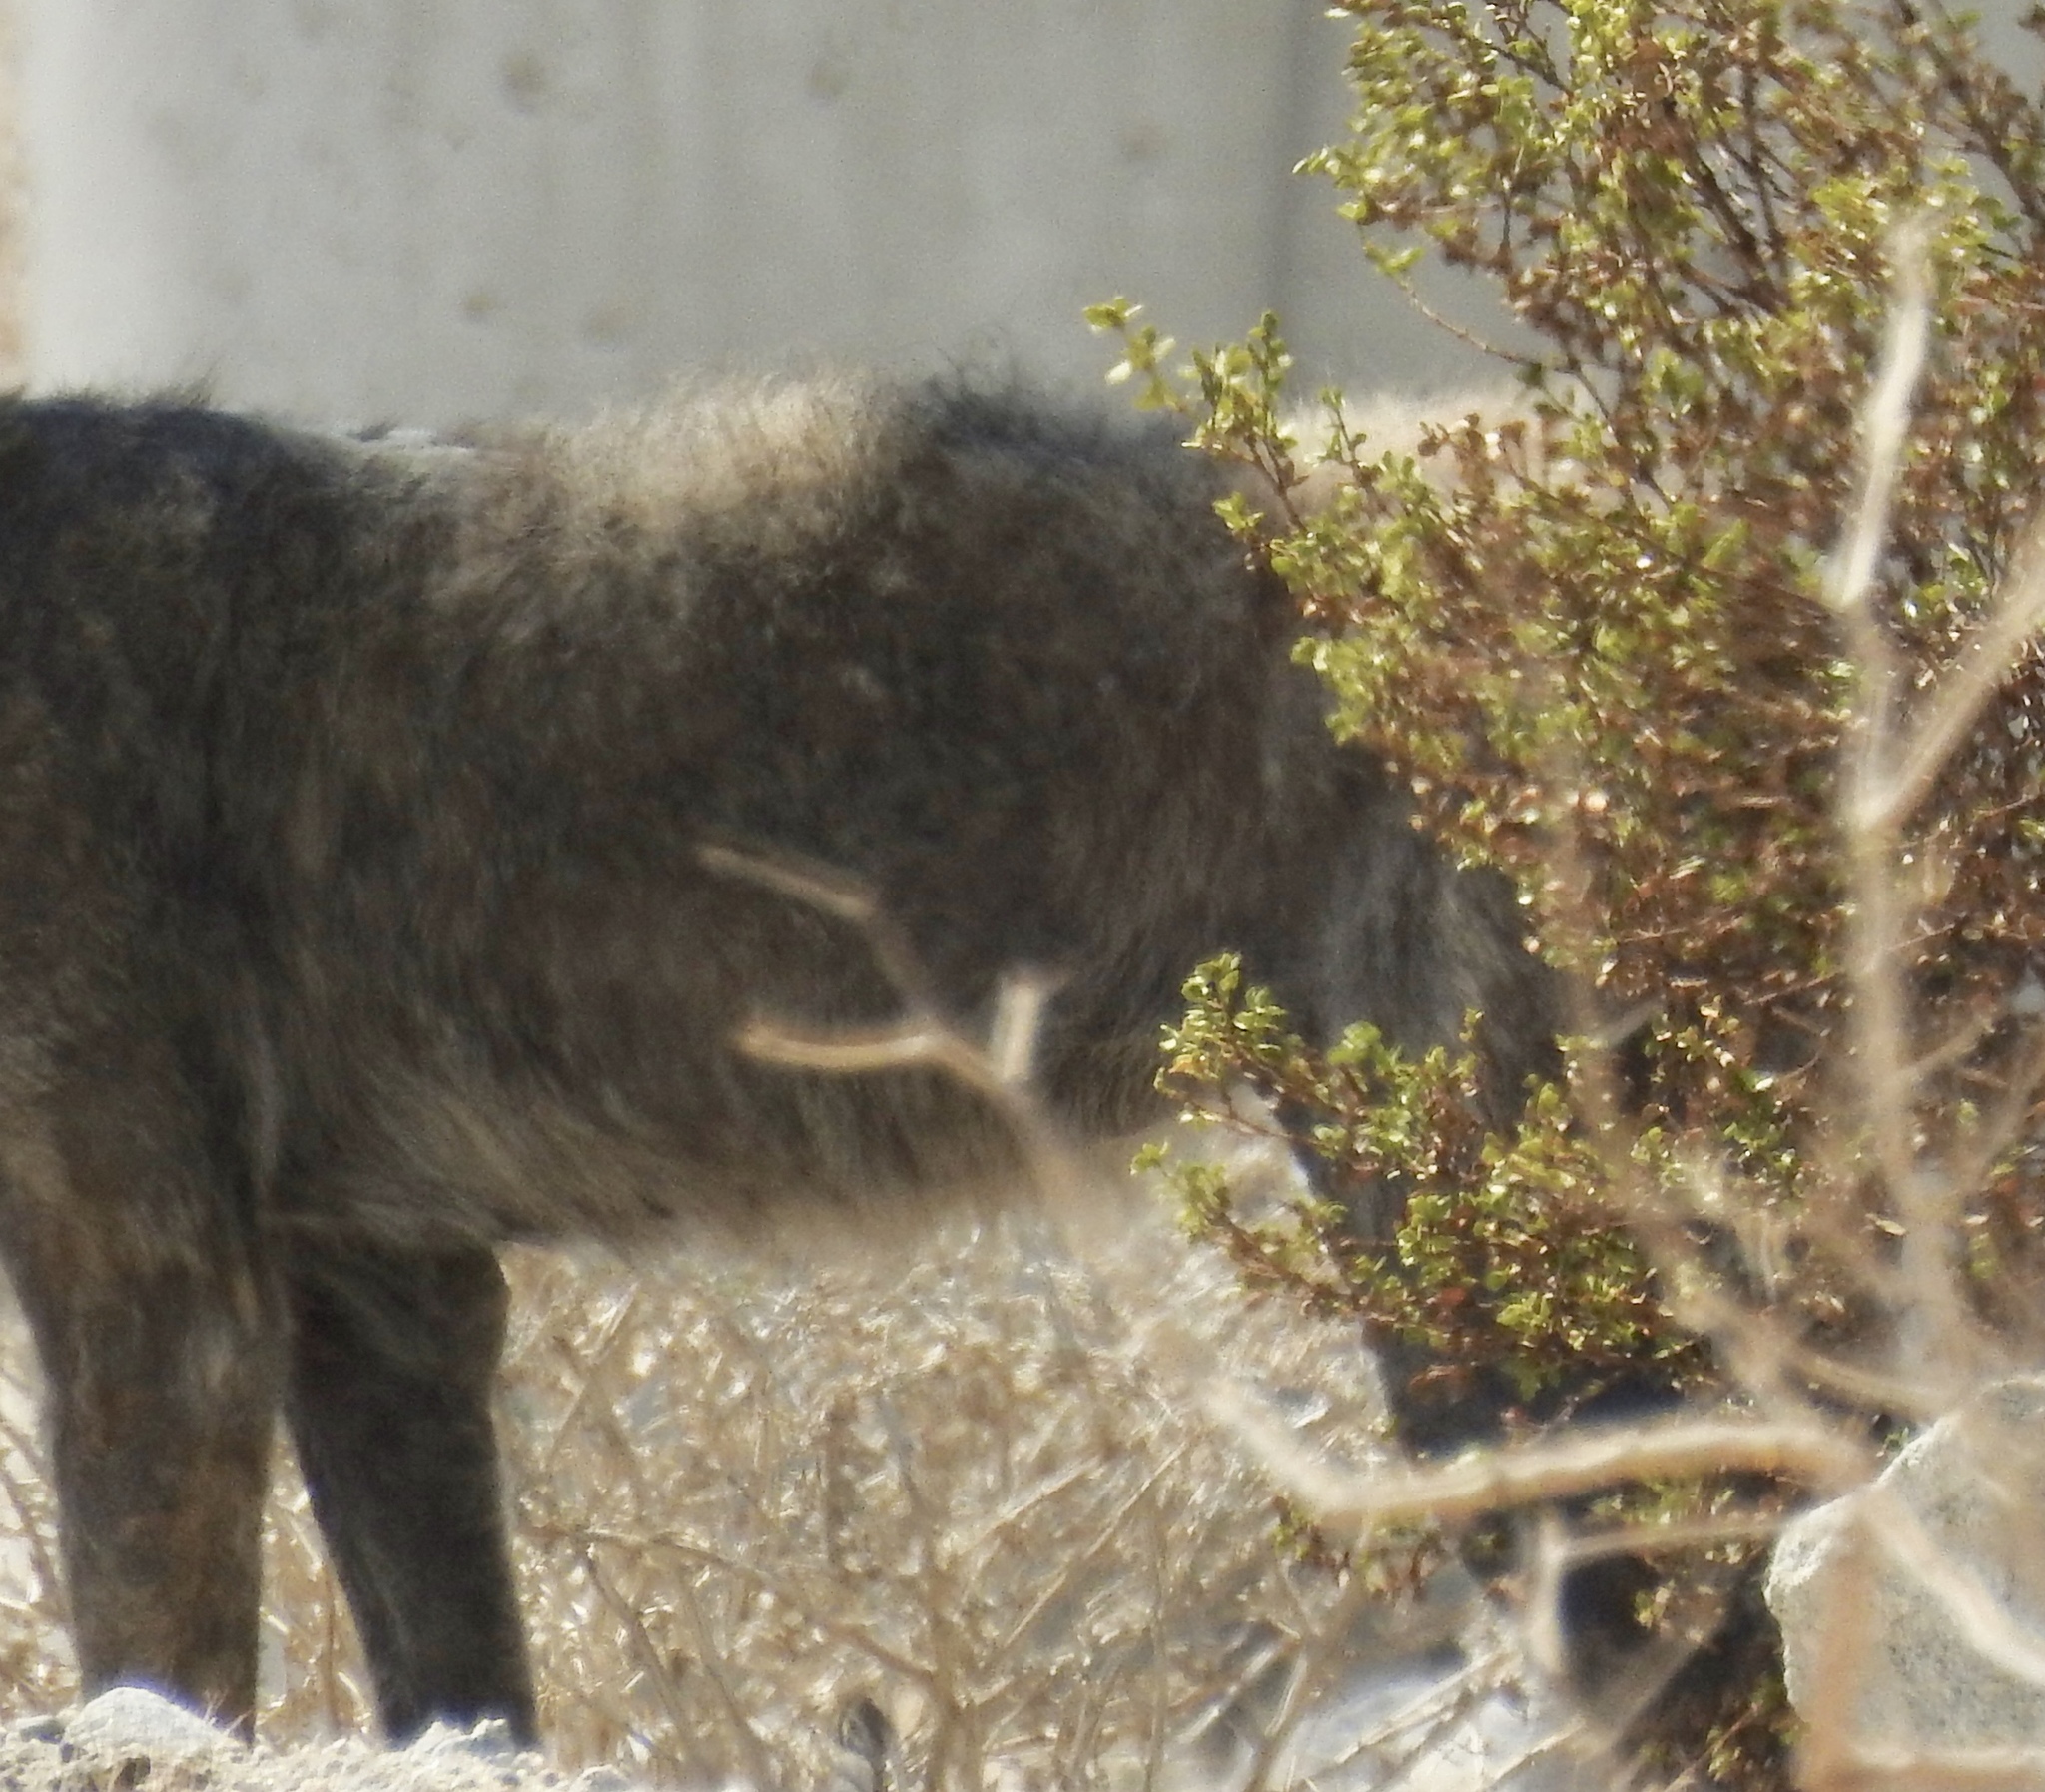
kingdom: Animalia
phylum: Chordata
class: Mammalia
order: Carnivora
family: Canidae
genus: Canis
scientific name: Canis latrans
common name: Coyote
